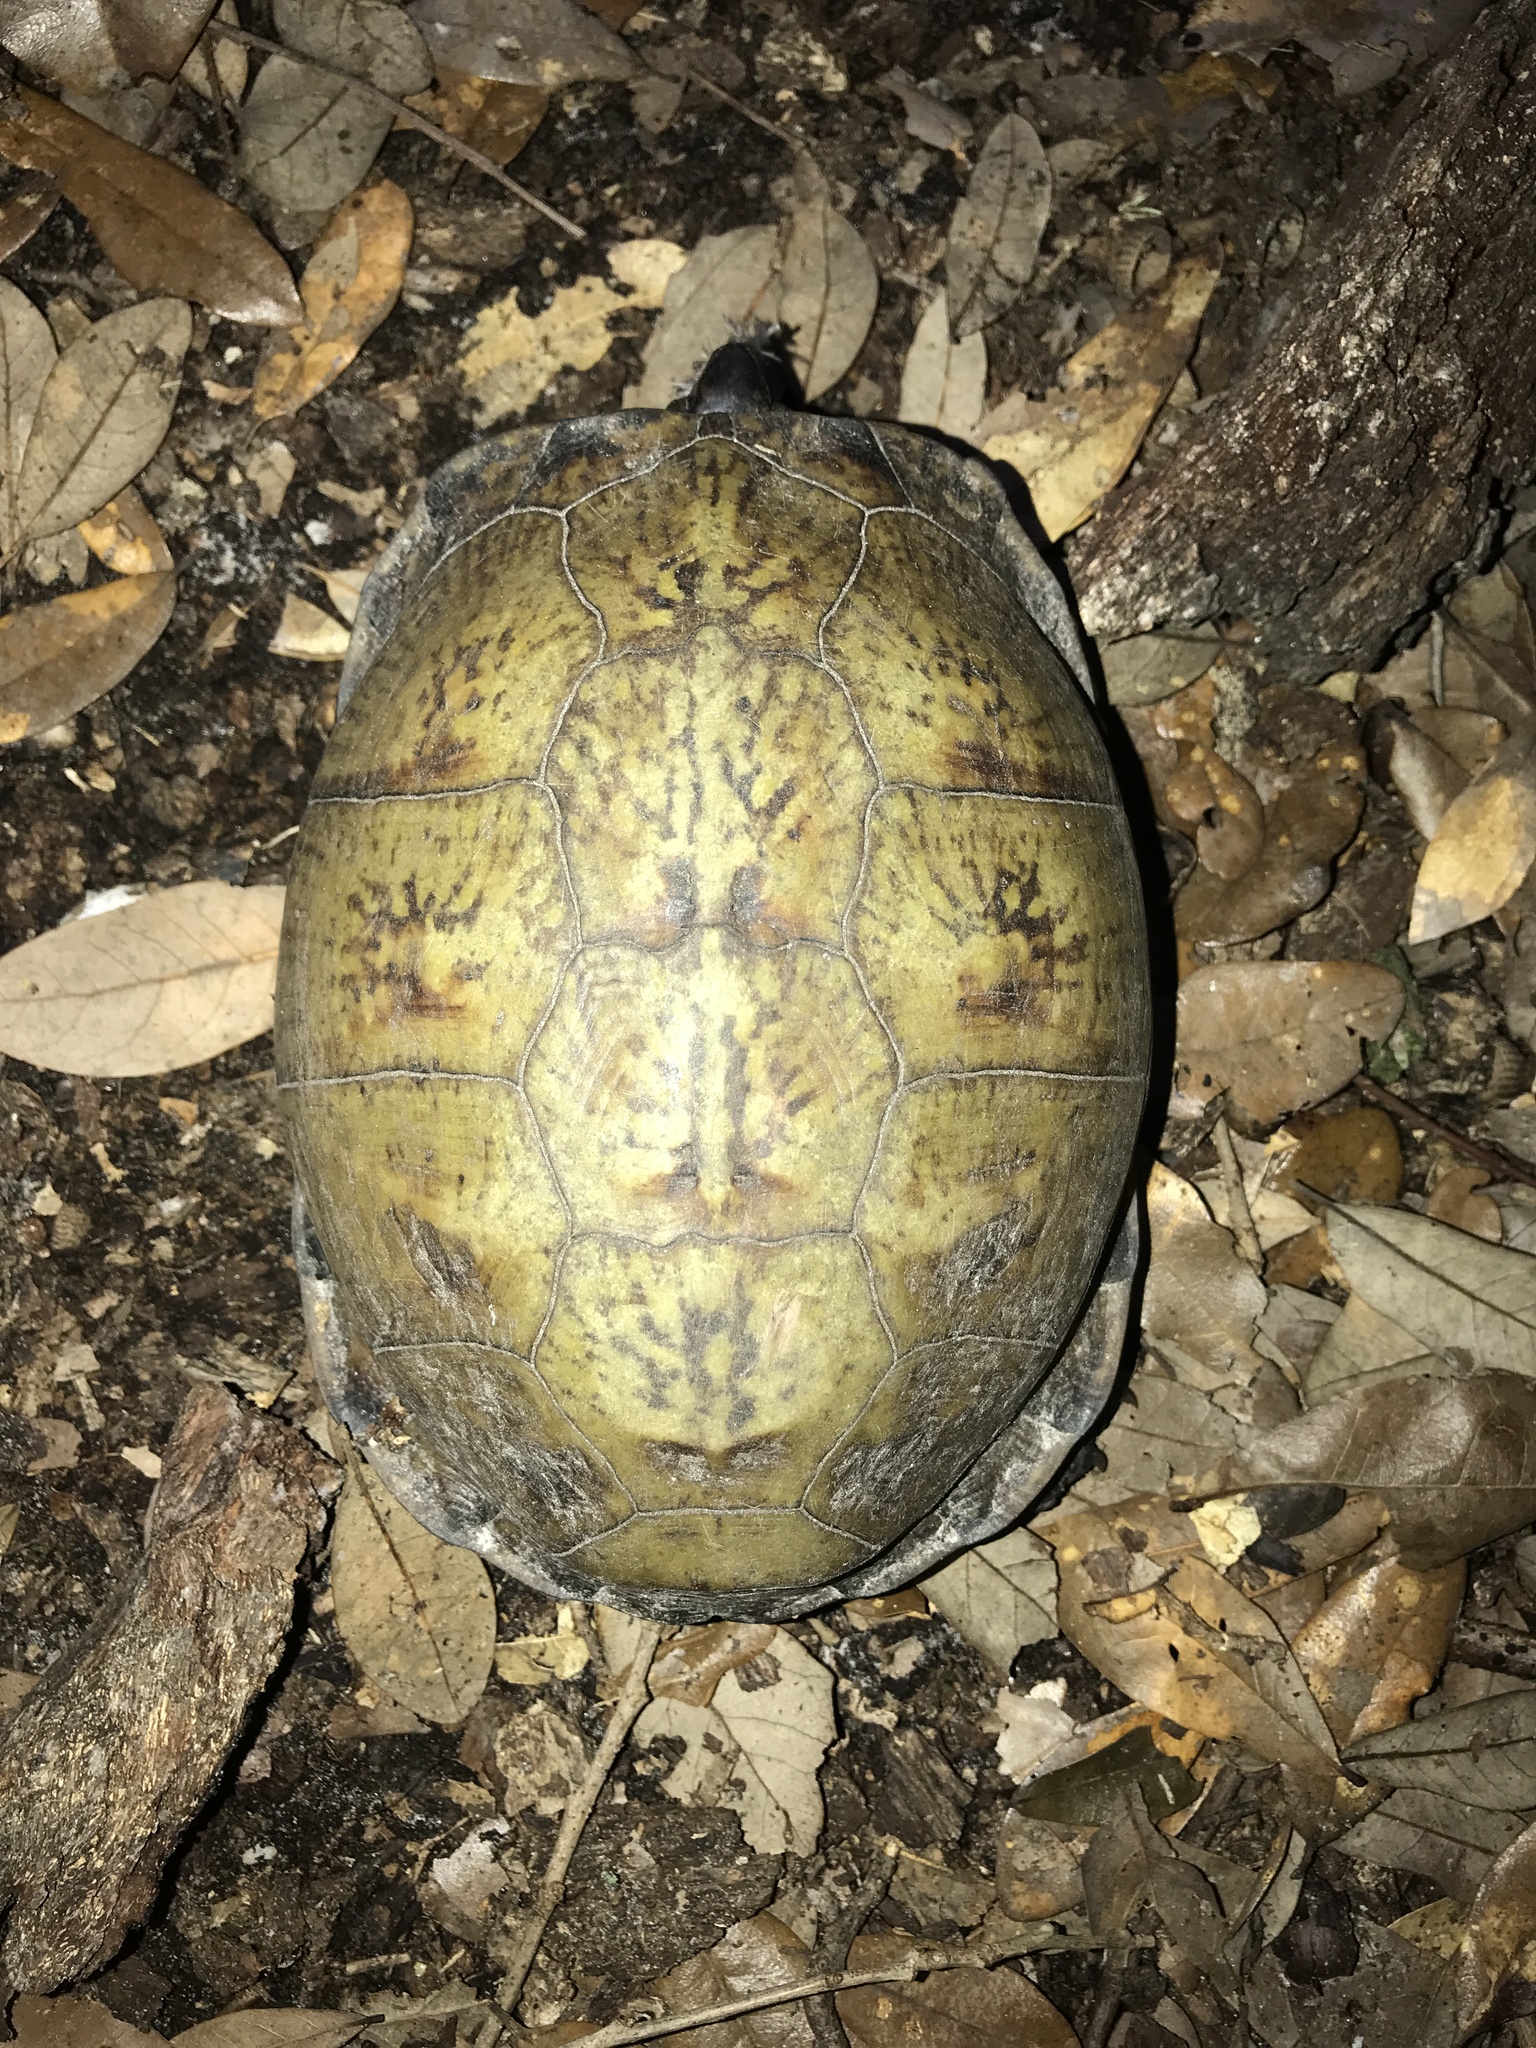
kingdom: Animalia
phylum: Chordata
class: Testudines
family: Emydidae
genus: Terrapene
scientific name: Terrapene carolina
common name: Common box turtle
